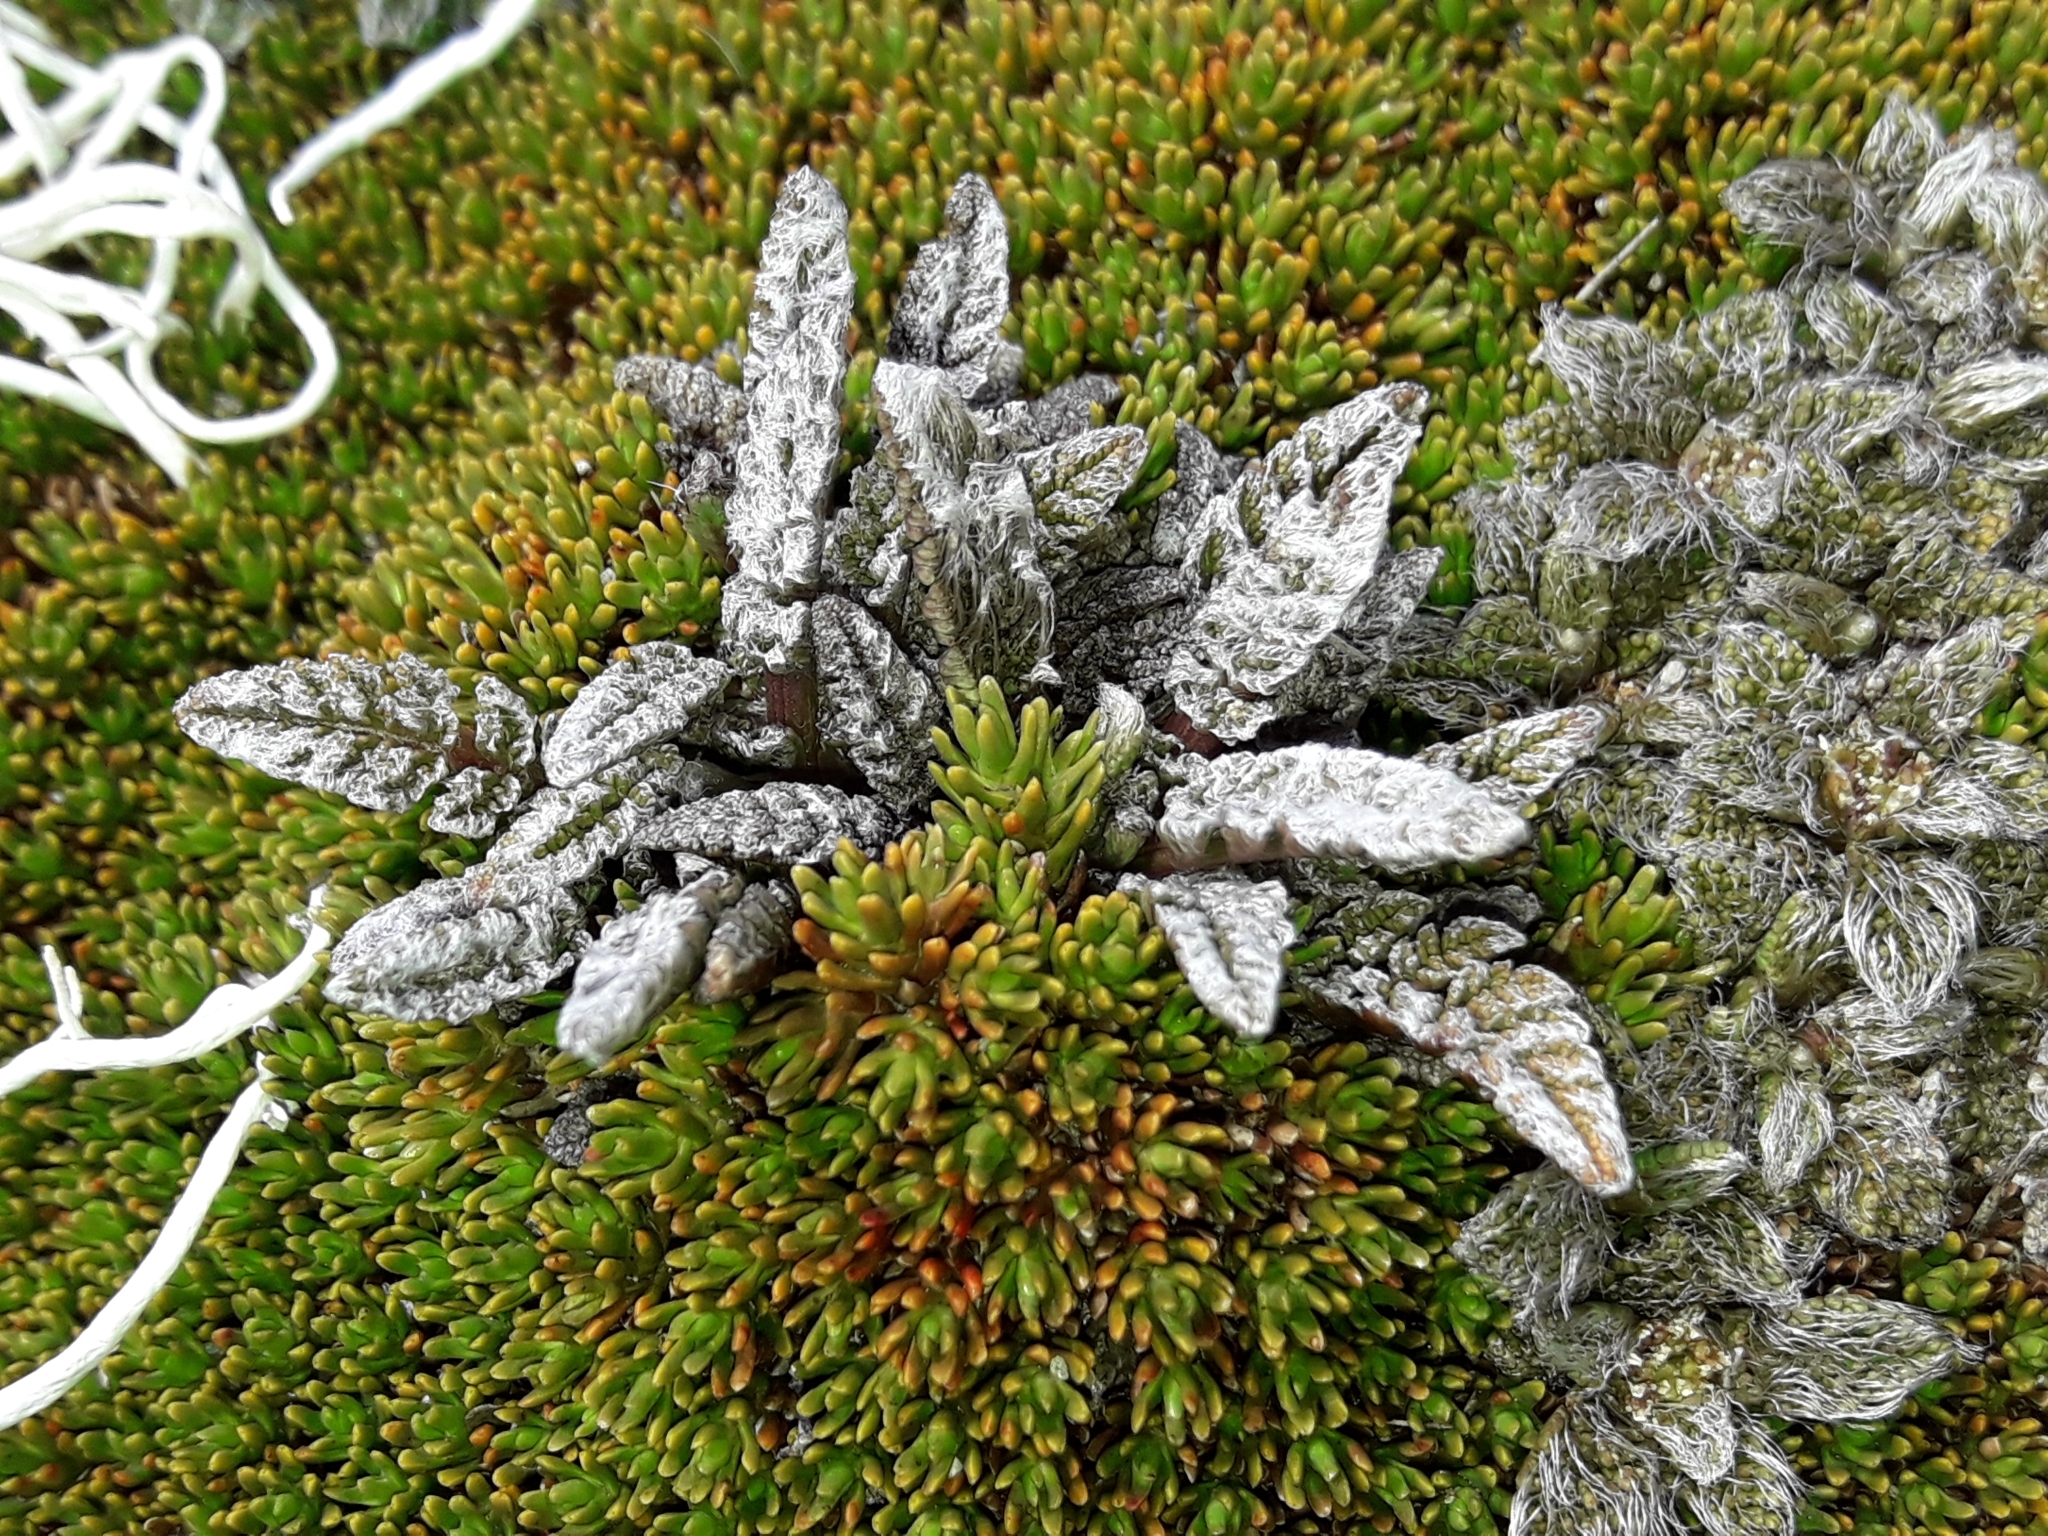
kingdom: Plantae
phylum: Tracheophyta
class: Magnoliopsida
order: Apiales
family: Apiaceae
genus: Anisotome
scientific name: Anisotome lanuginosa
